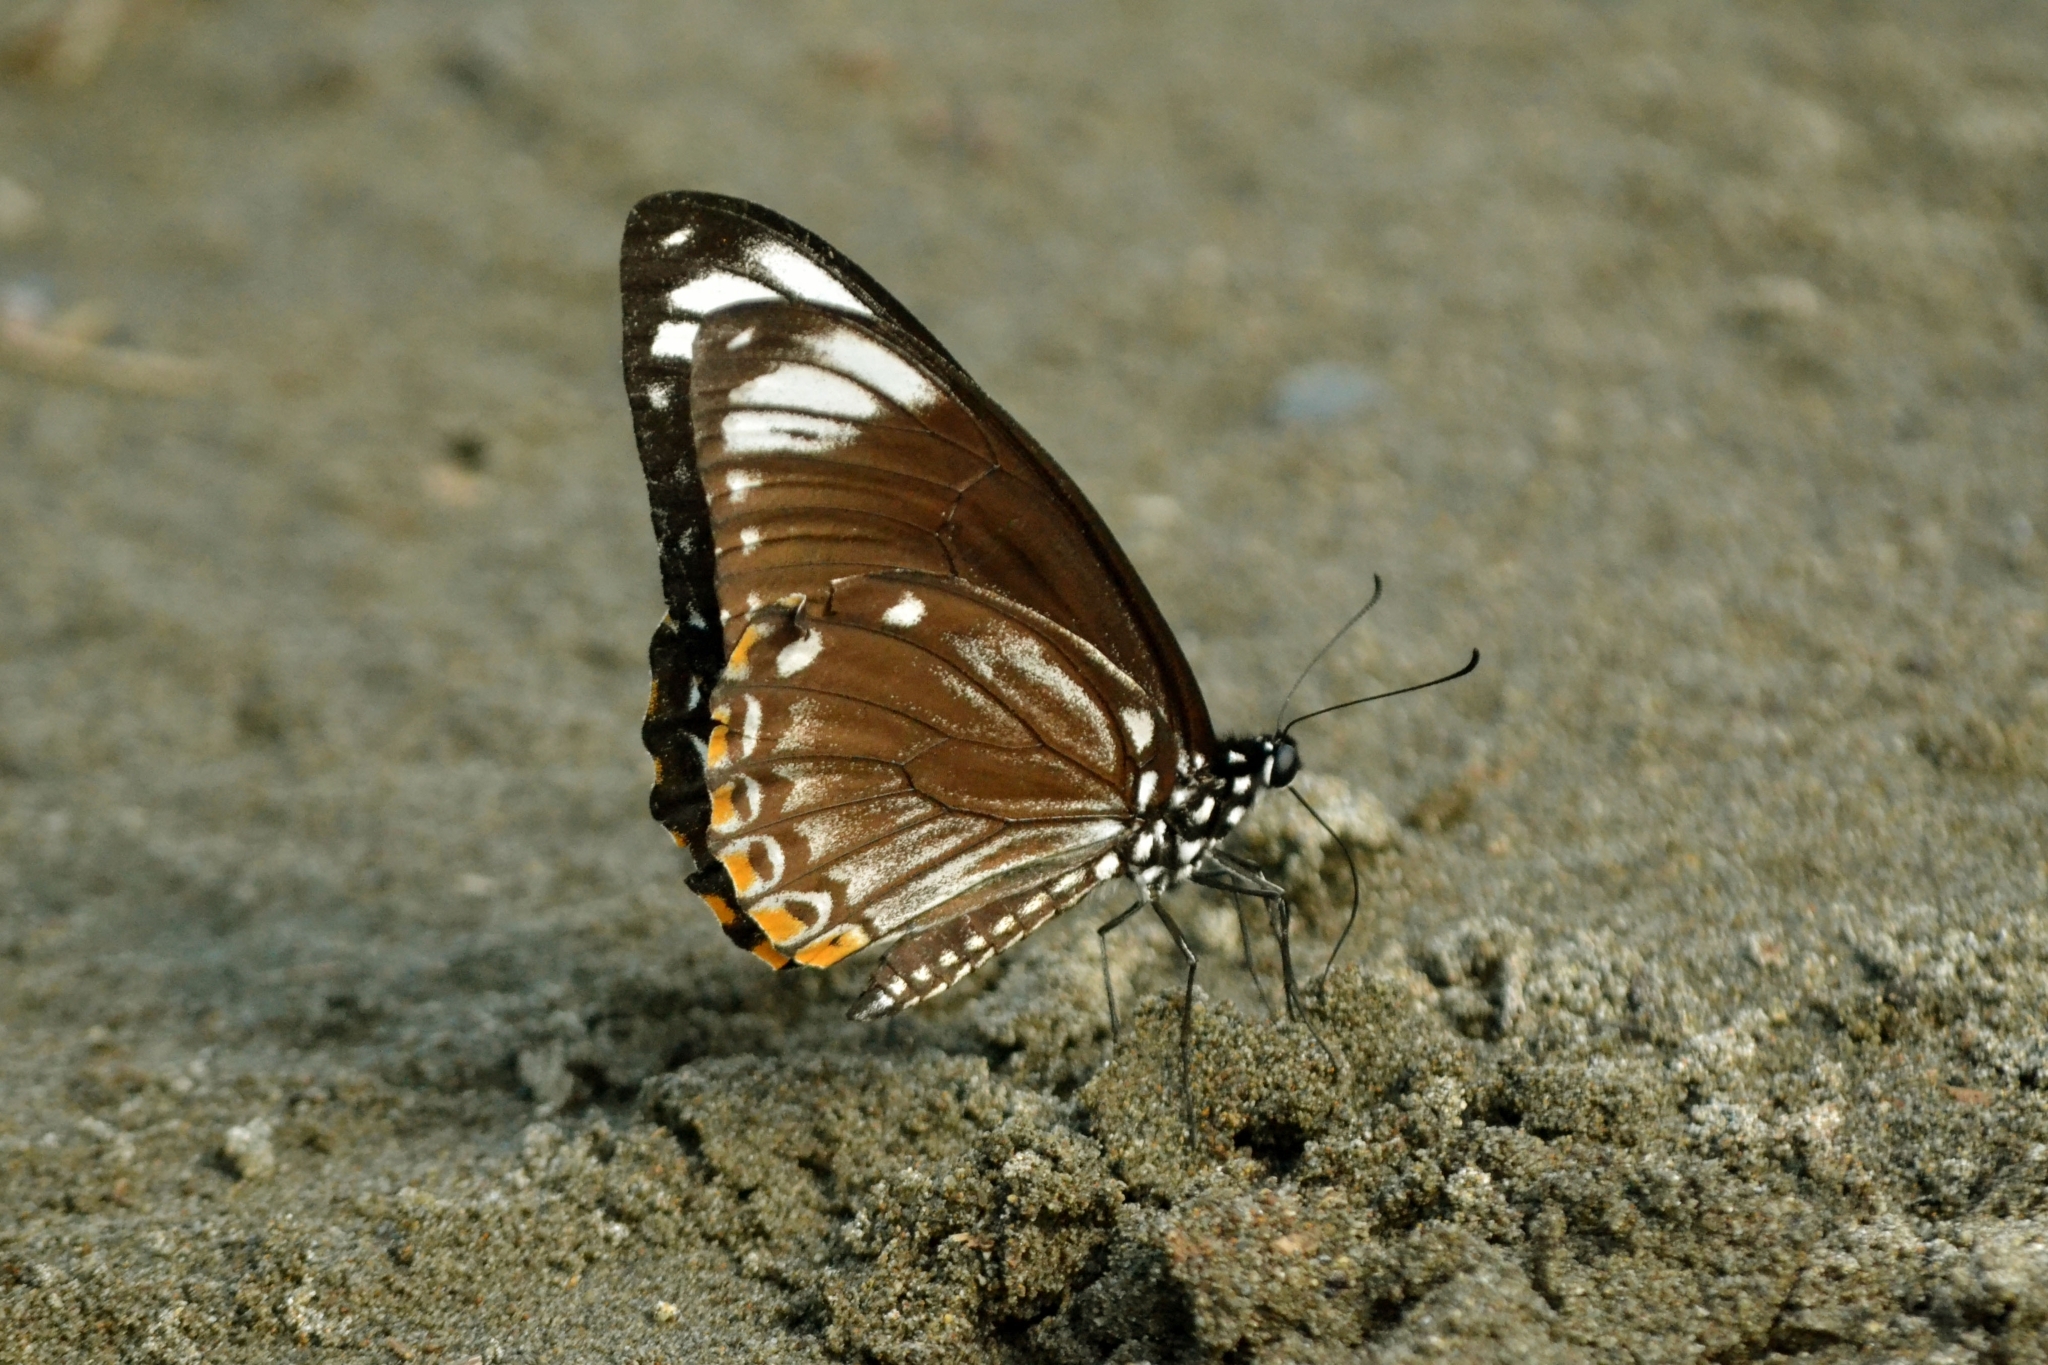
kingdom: Animalia
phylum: Arthropoda
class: Insecta
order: Lepidoptera
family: Papilionidae
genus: Chilasa
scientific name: Chilasa clytia
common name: Common mime
